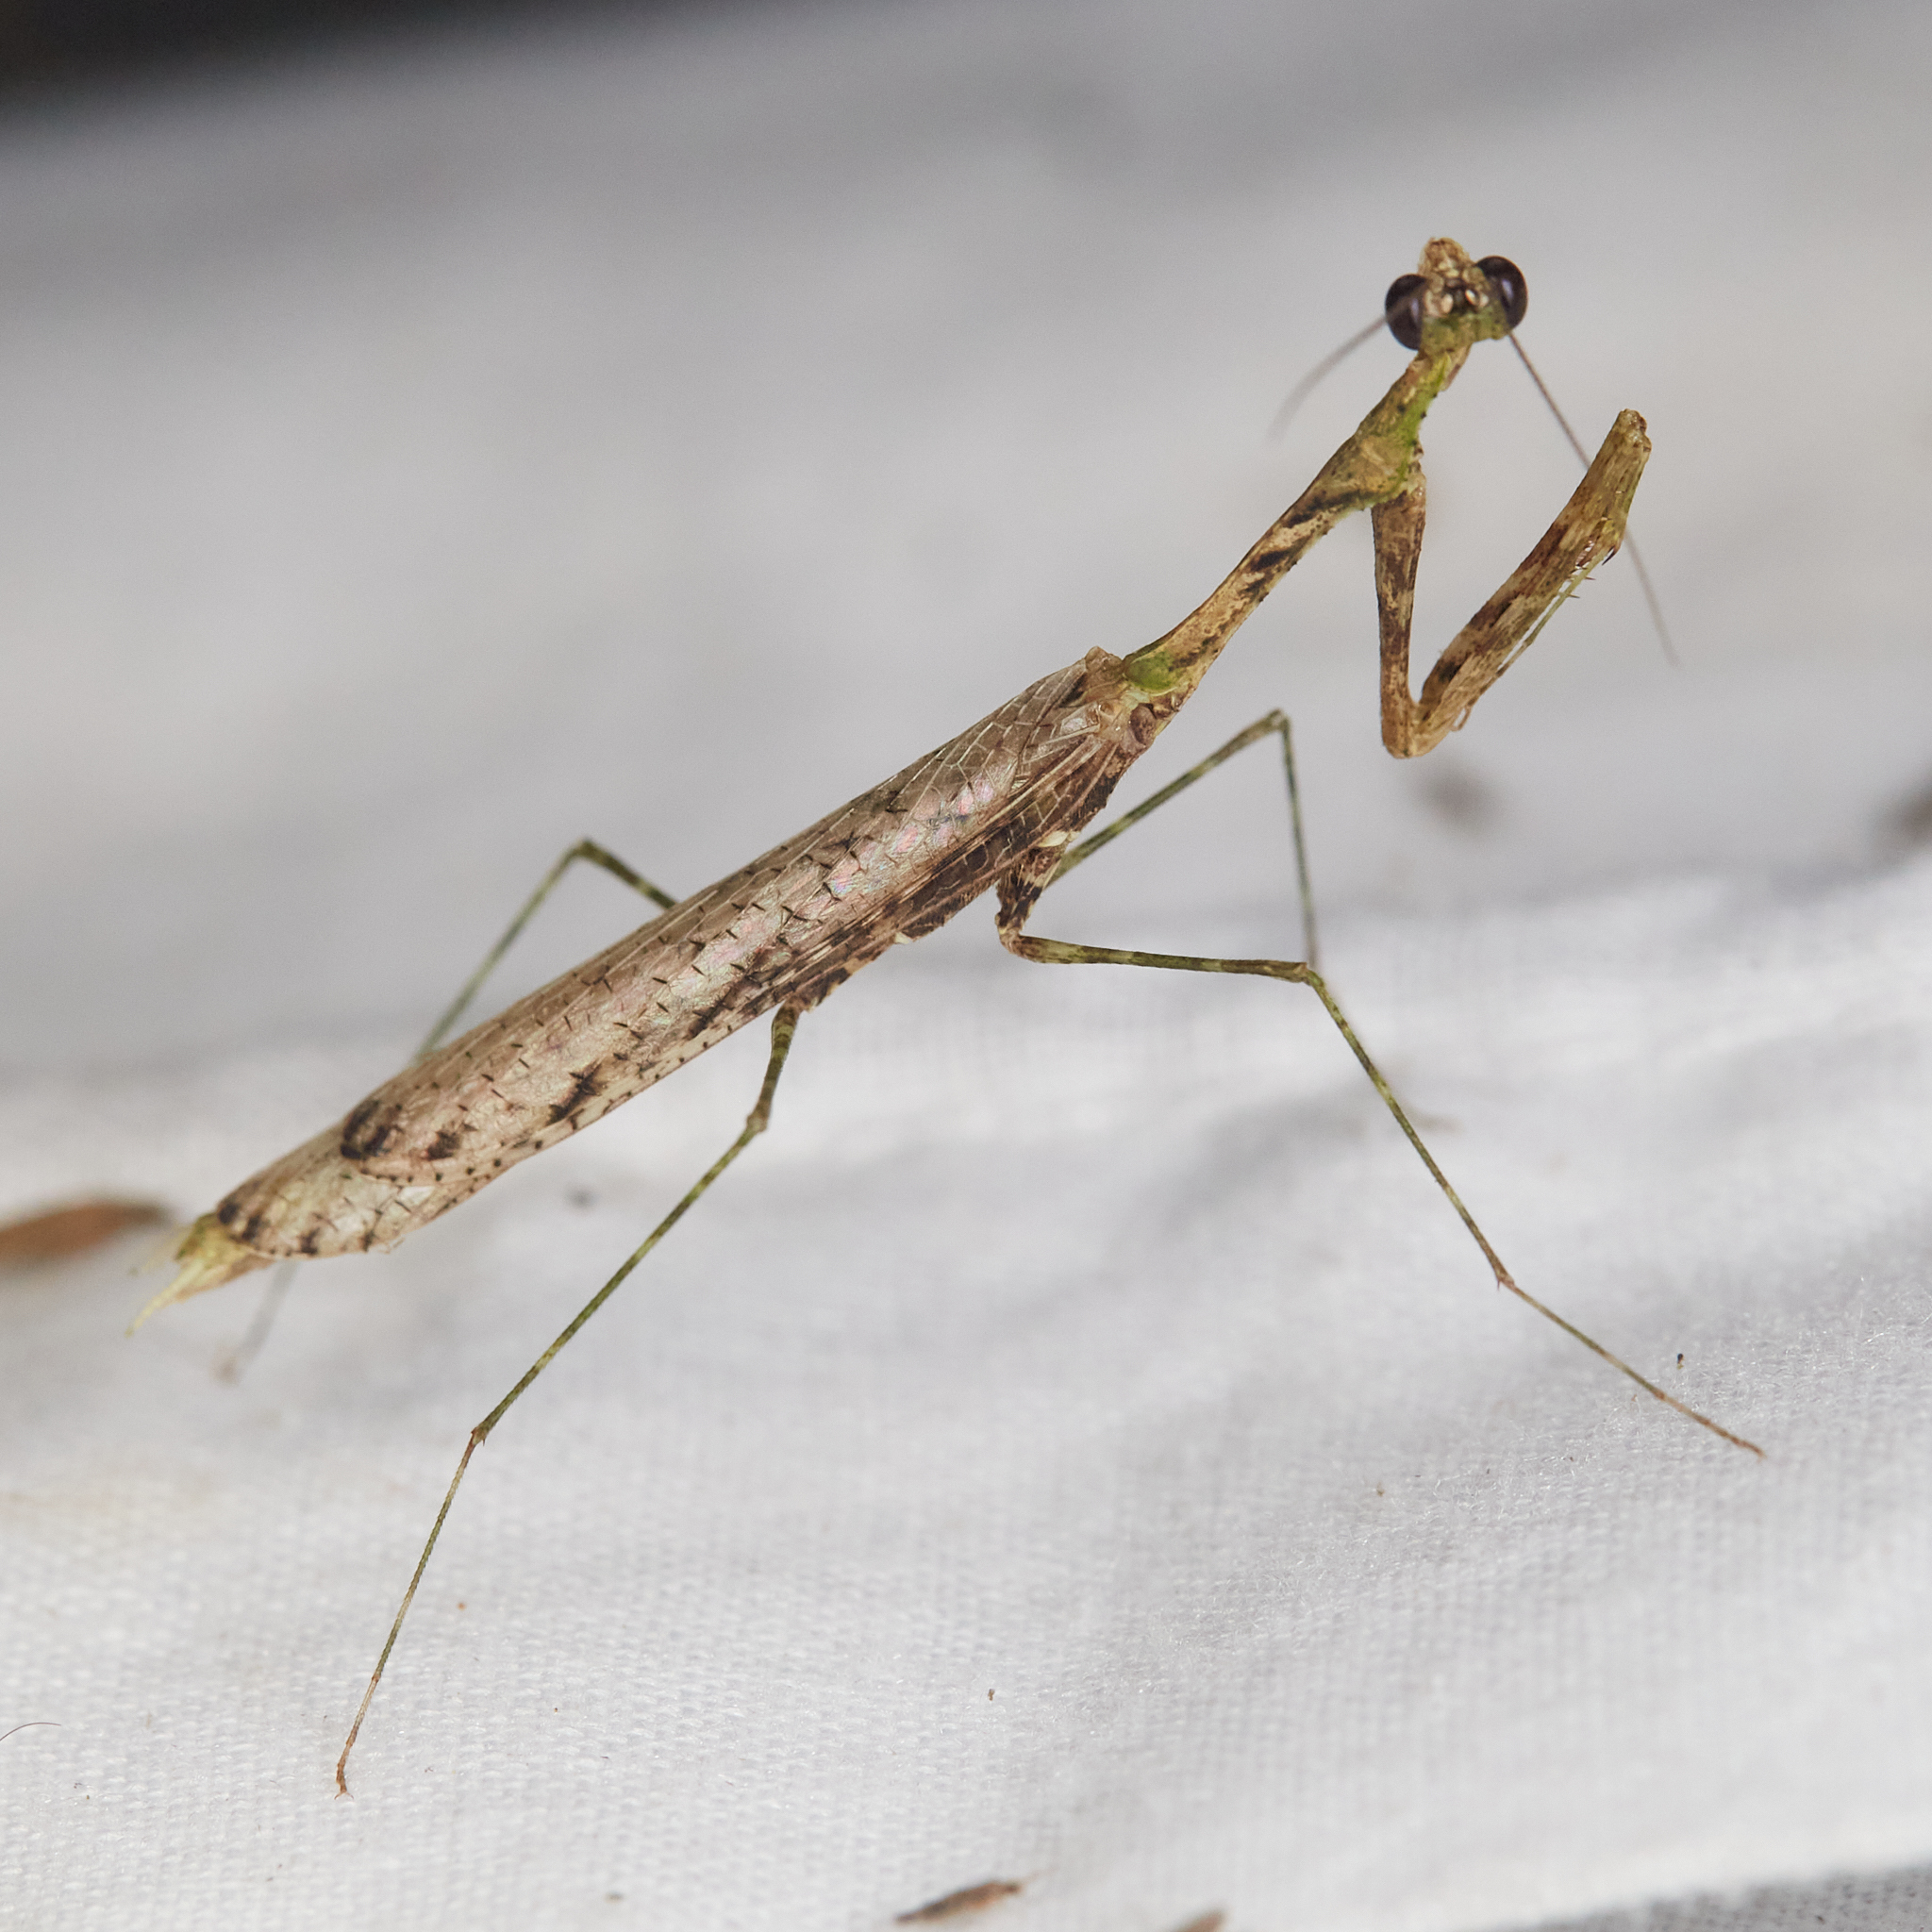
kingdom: Animalia
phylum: Arthropoda
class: Insecta
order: Mantodea
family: Thespidae
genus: Pogonogaster
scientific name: Pogonogaster tristani
